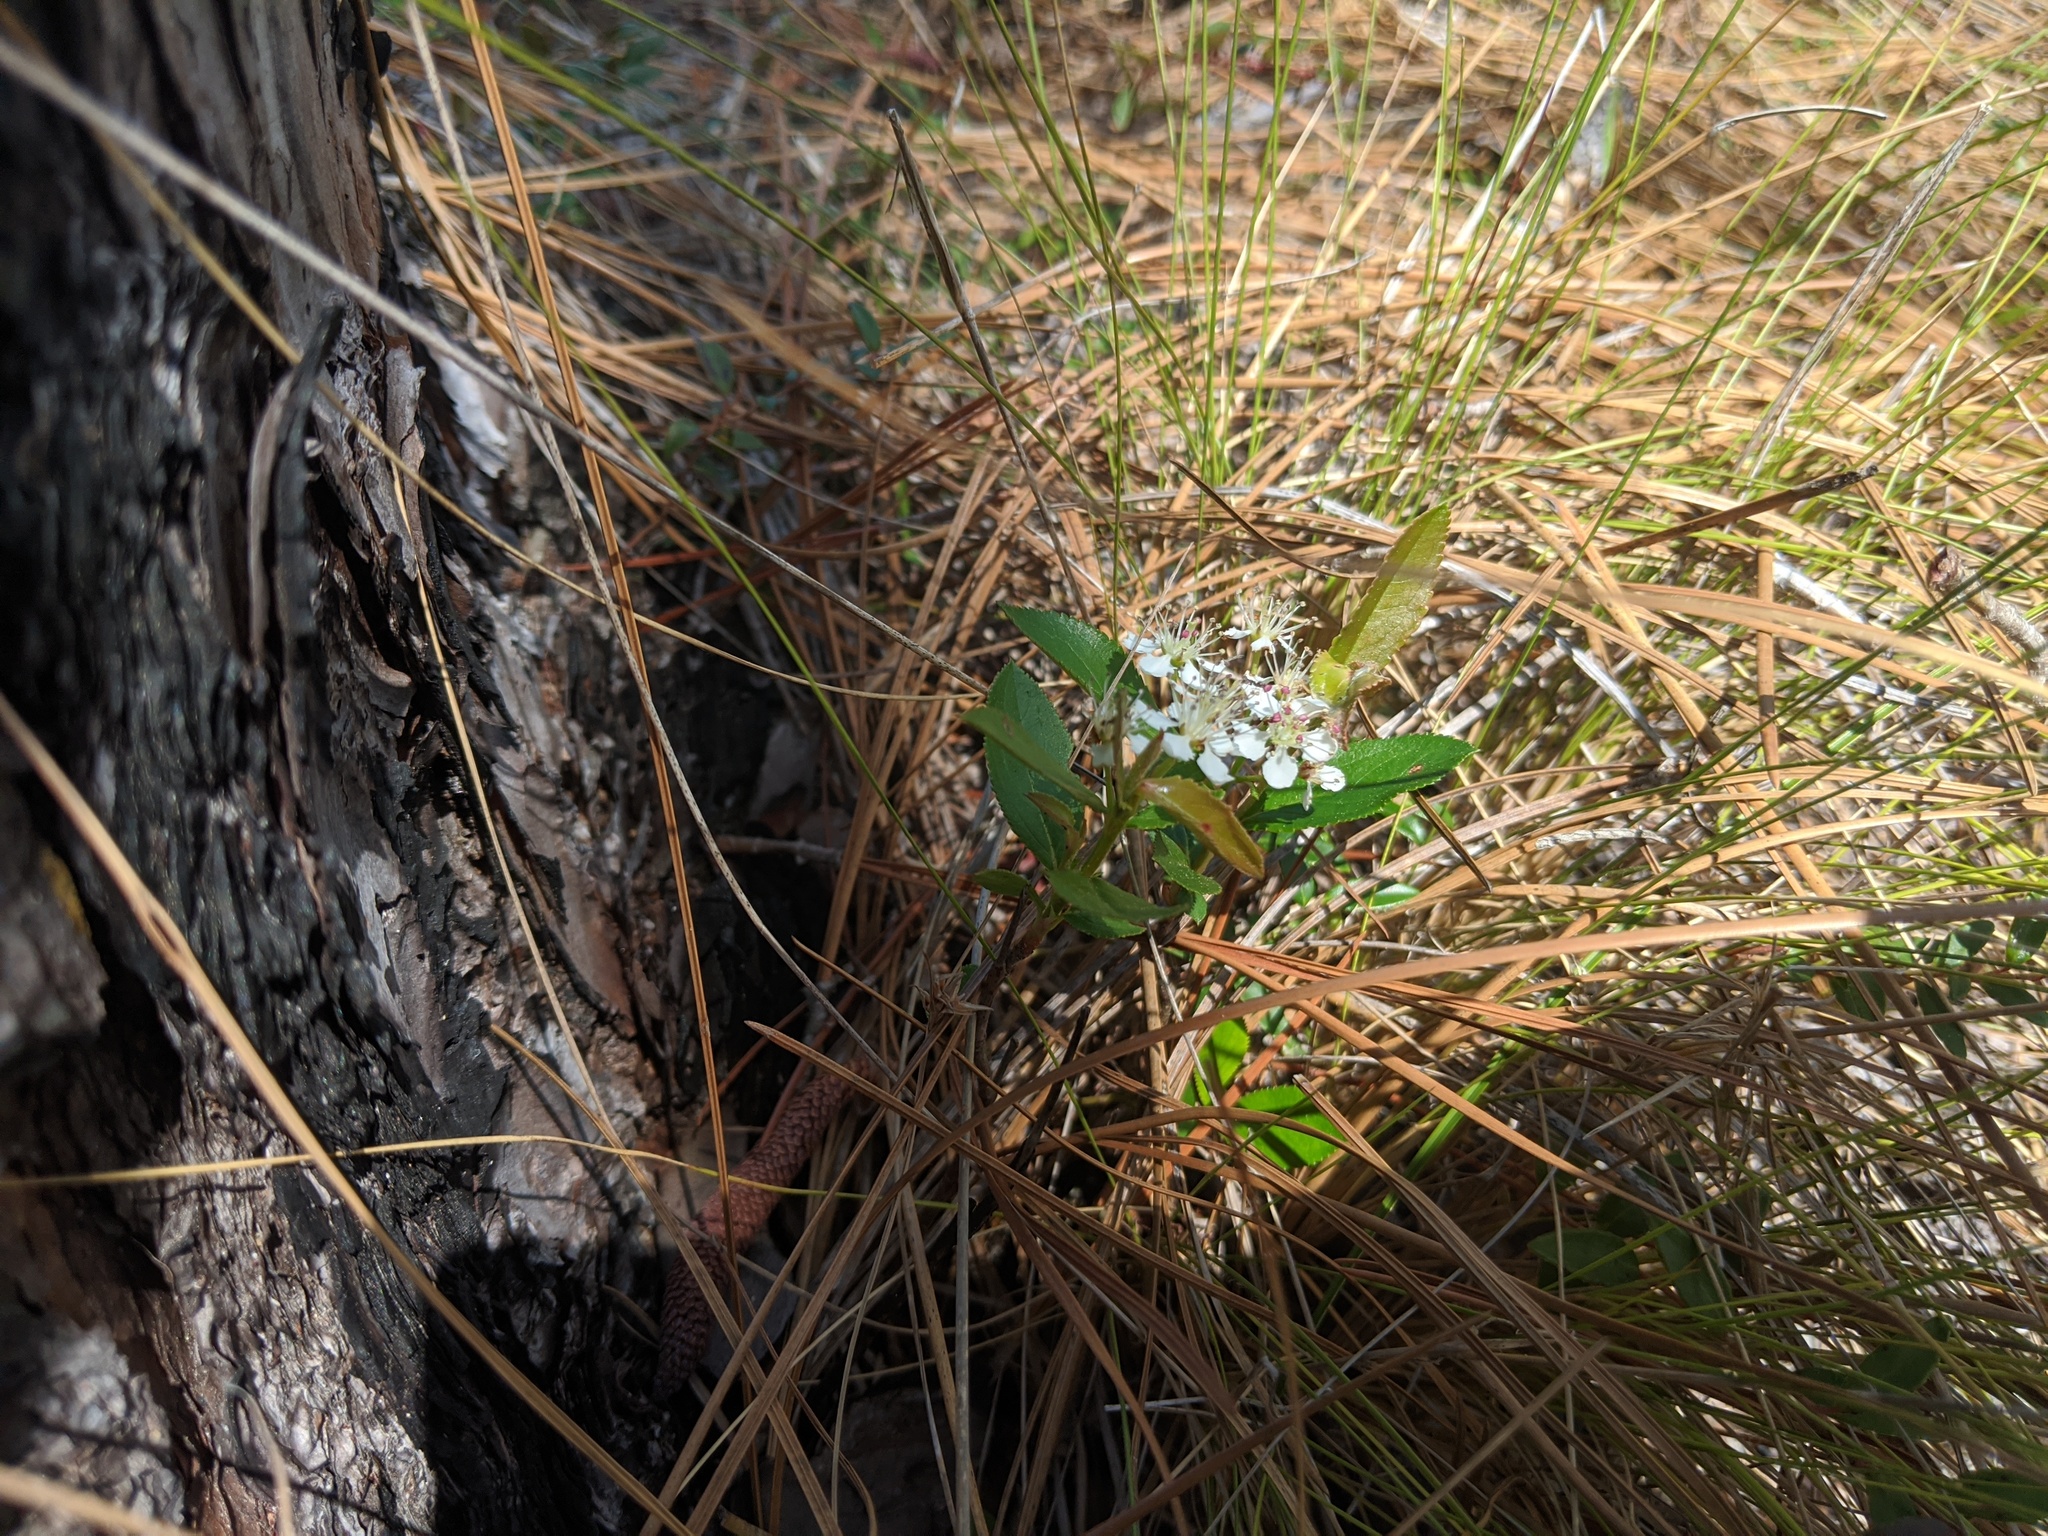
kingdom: Plantae
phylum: Tracheophyta
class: Magnoliopsida
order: Rosales
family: Rosaceae
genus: Aronia
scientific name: Aronia arbutifolia
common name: Red chokeberry
